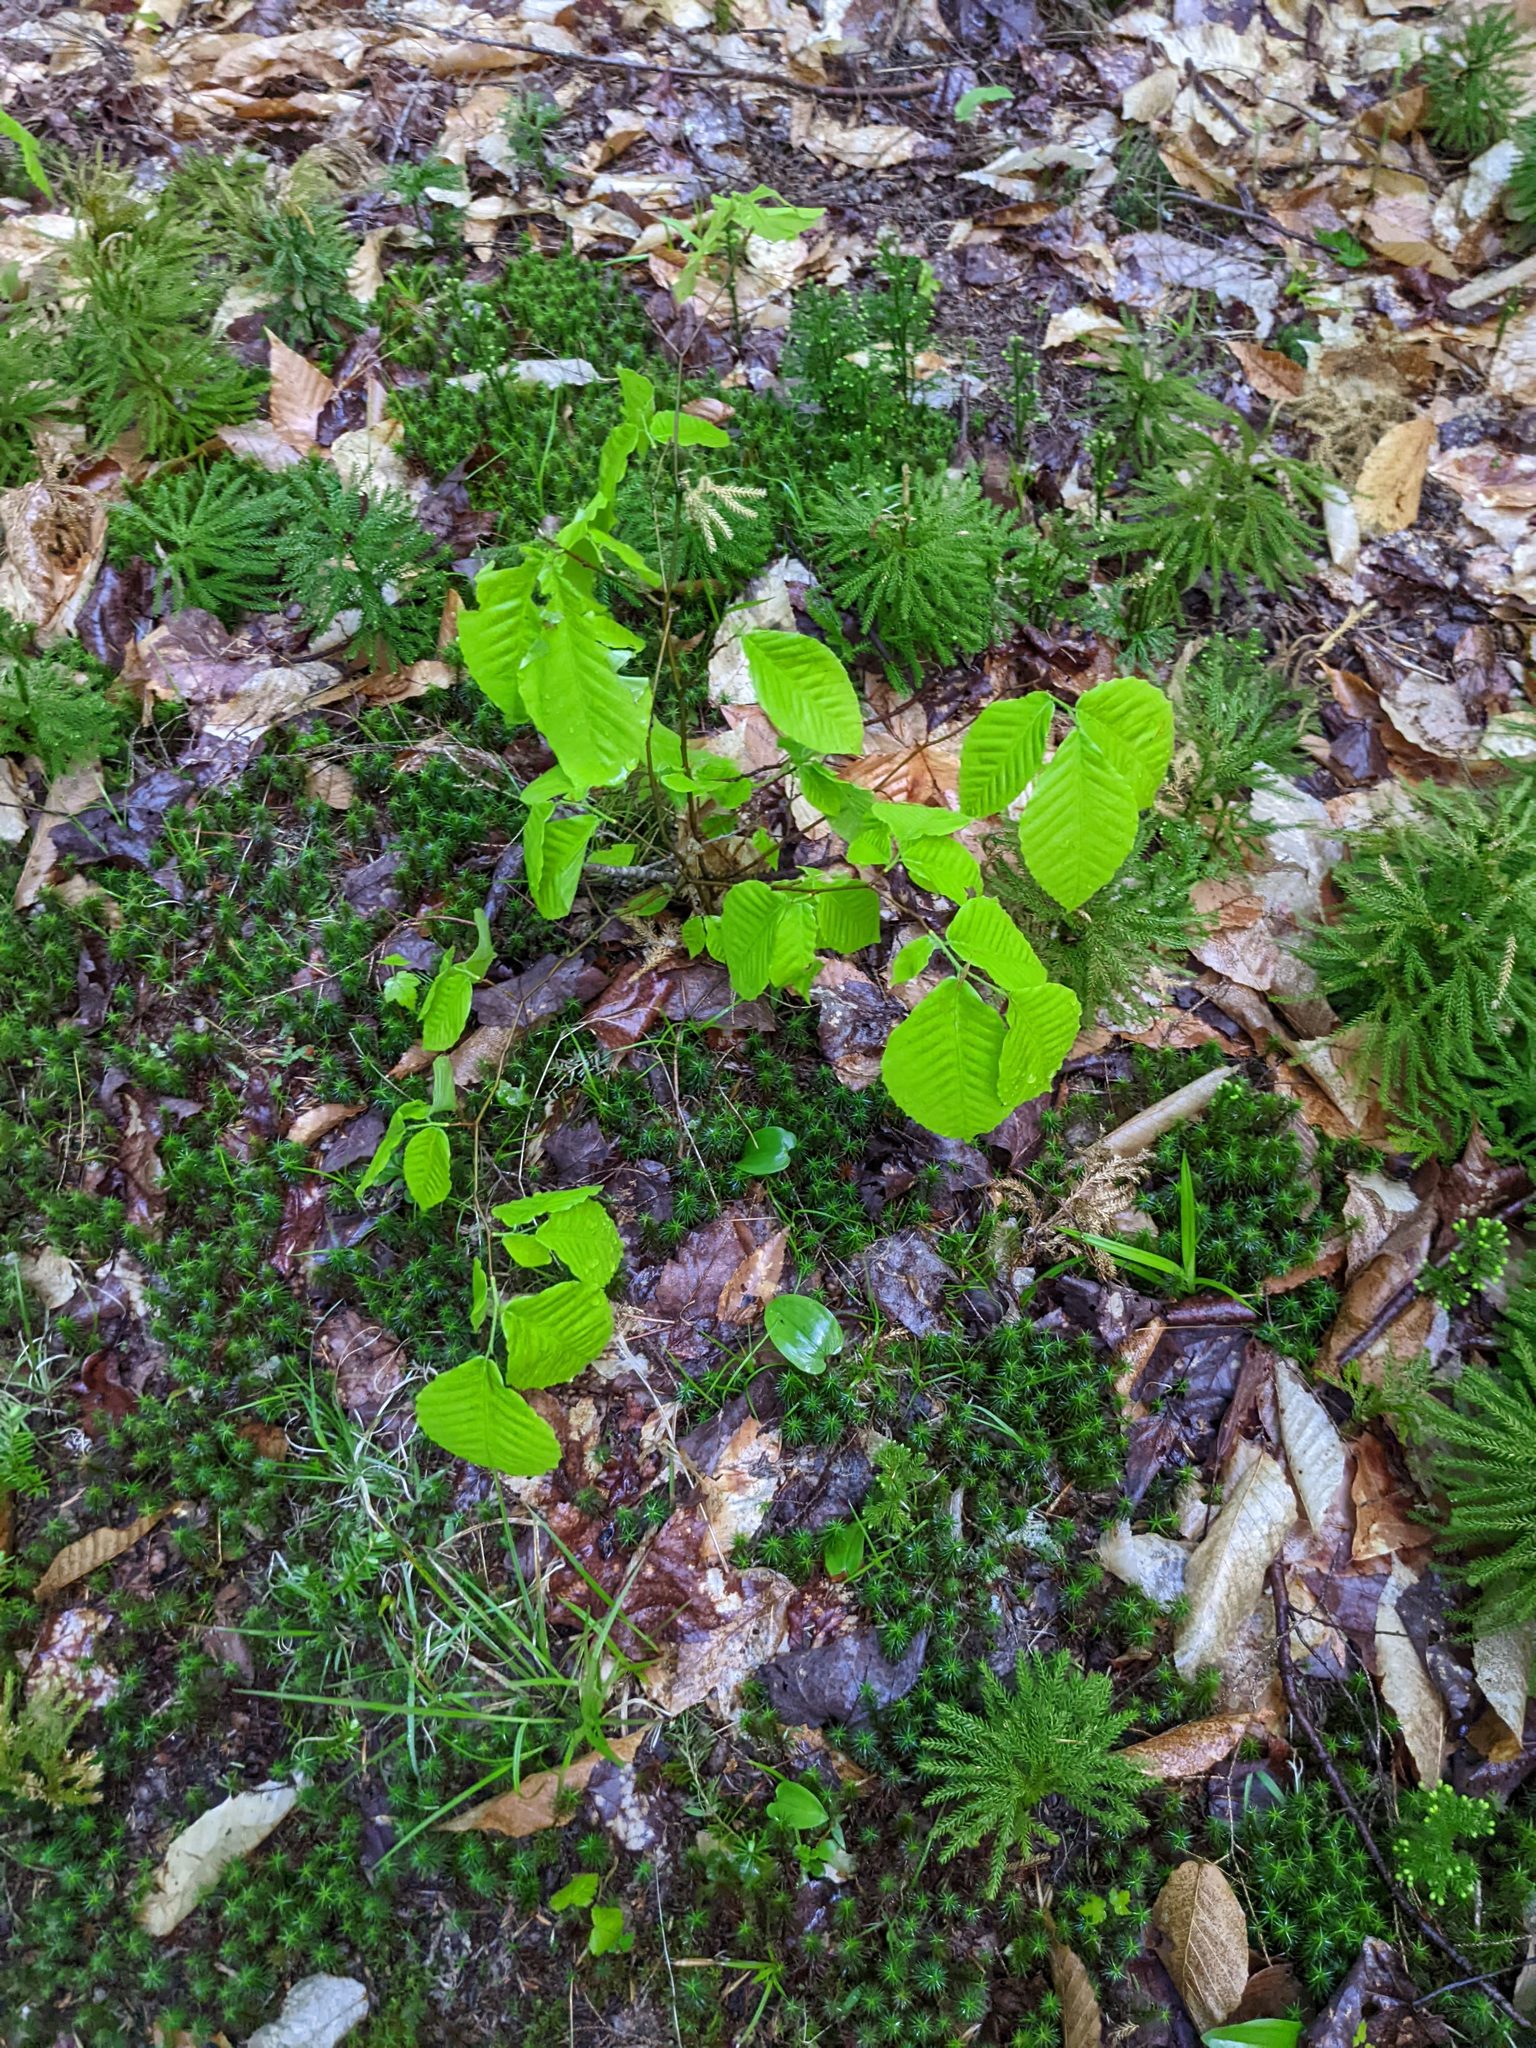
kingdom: Plantae
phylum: Tracheophyta
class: Magnoliopsida
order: Fagales
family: Fagaceae
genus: Fagus
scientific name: Fagus grandifolia
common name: American beech
